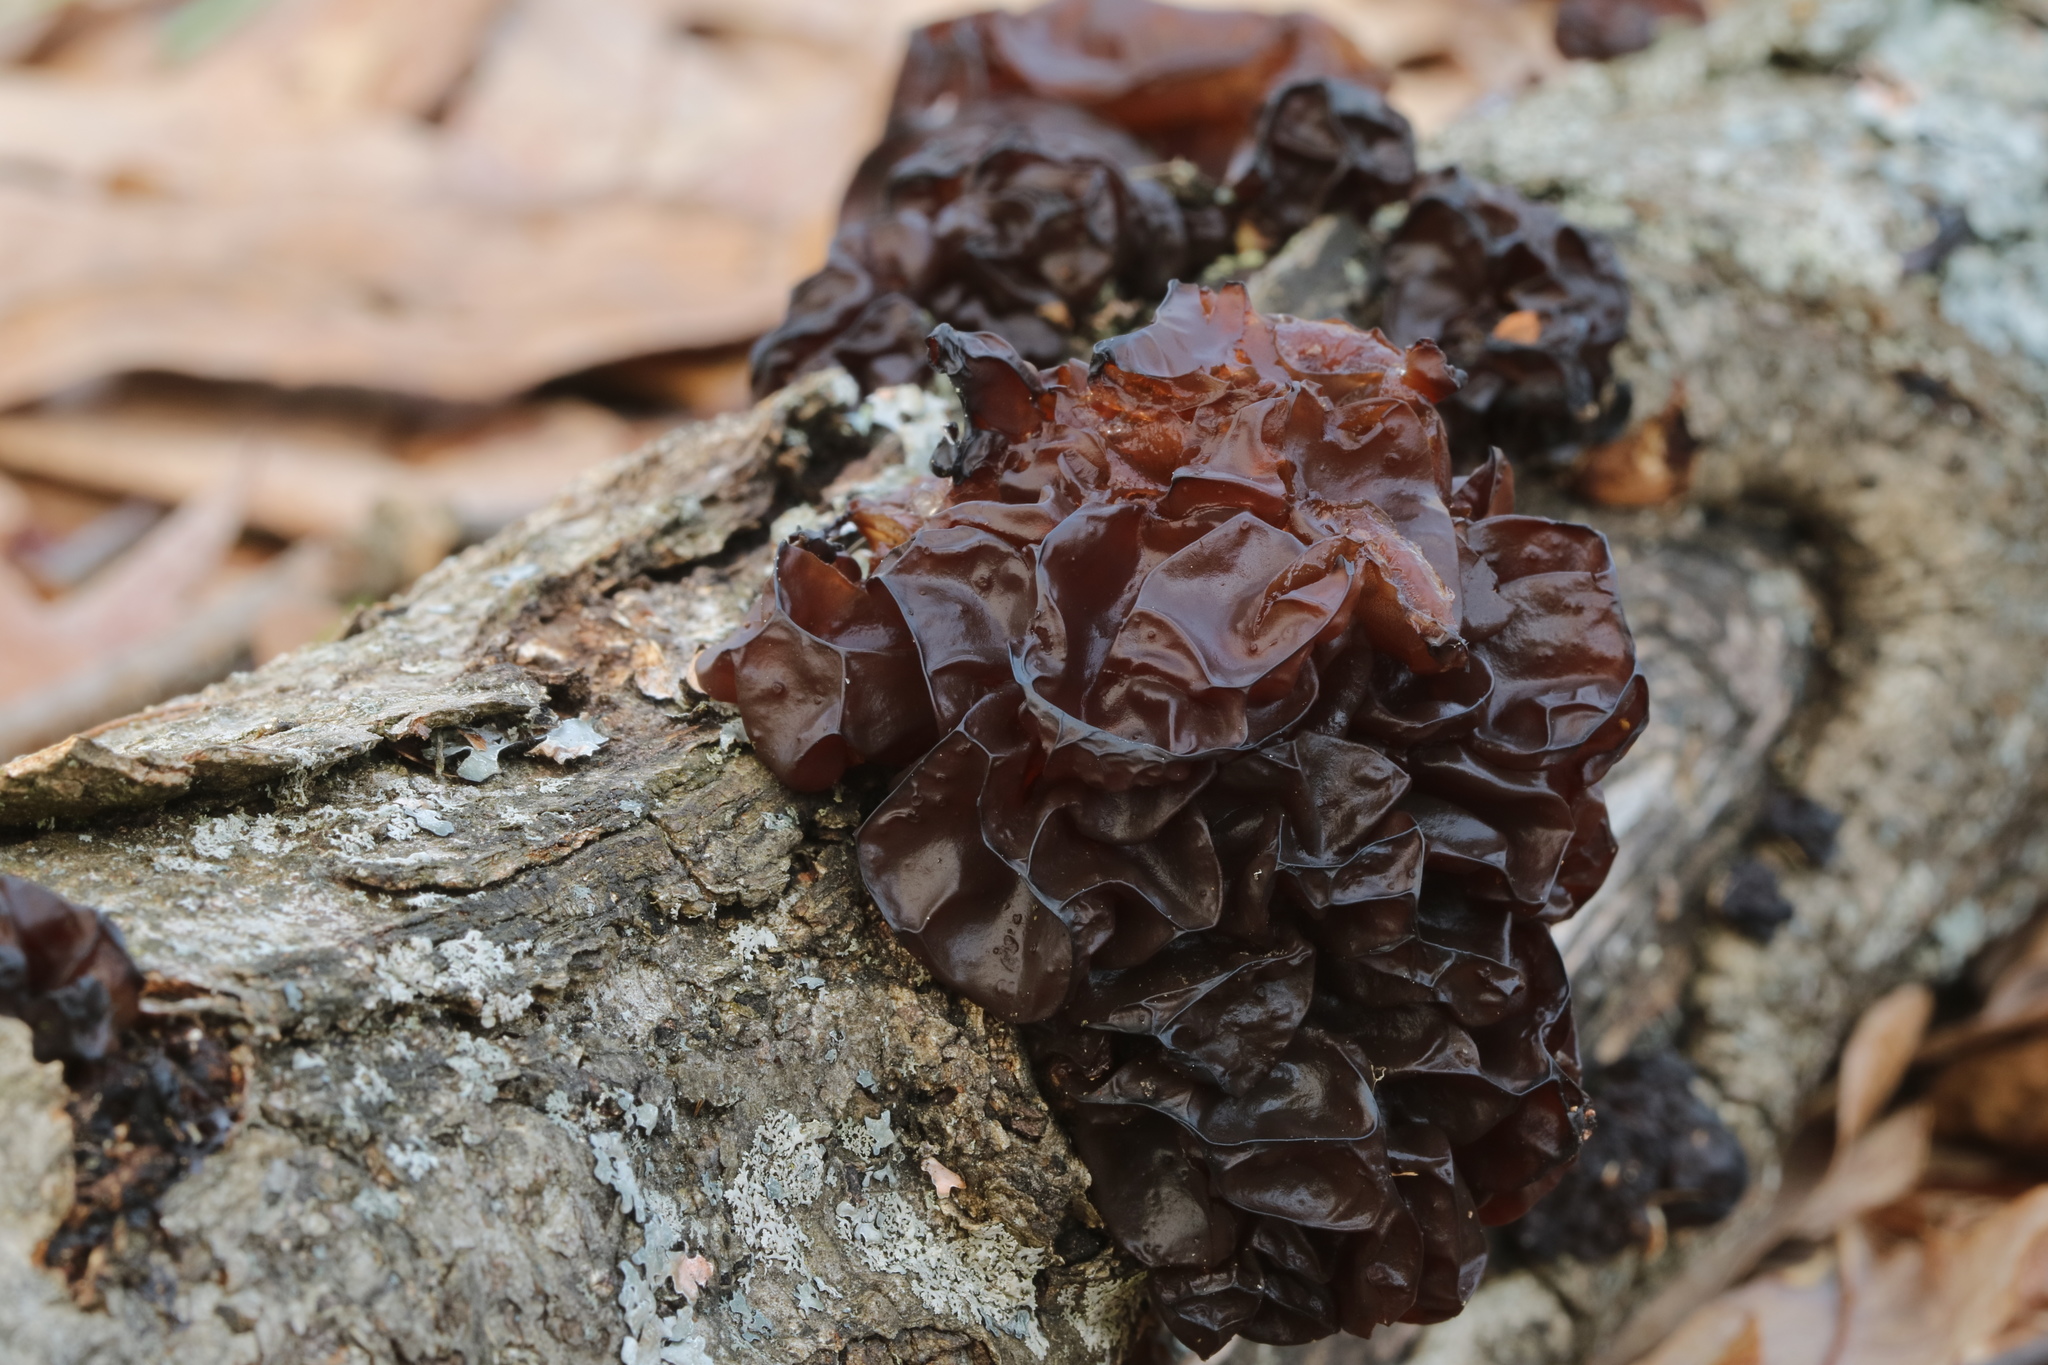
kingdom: Fungi
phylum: Basidiomycota
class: Agaricomycetes
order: Auriculariales
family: Auriculariaceae
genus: Exidia
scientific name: Exidia
